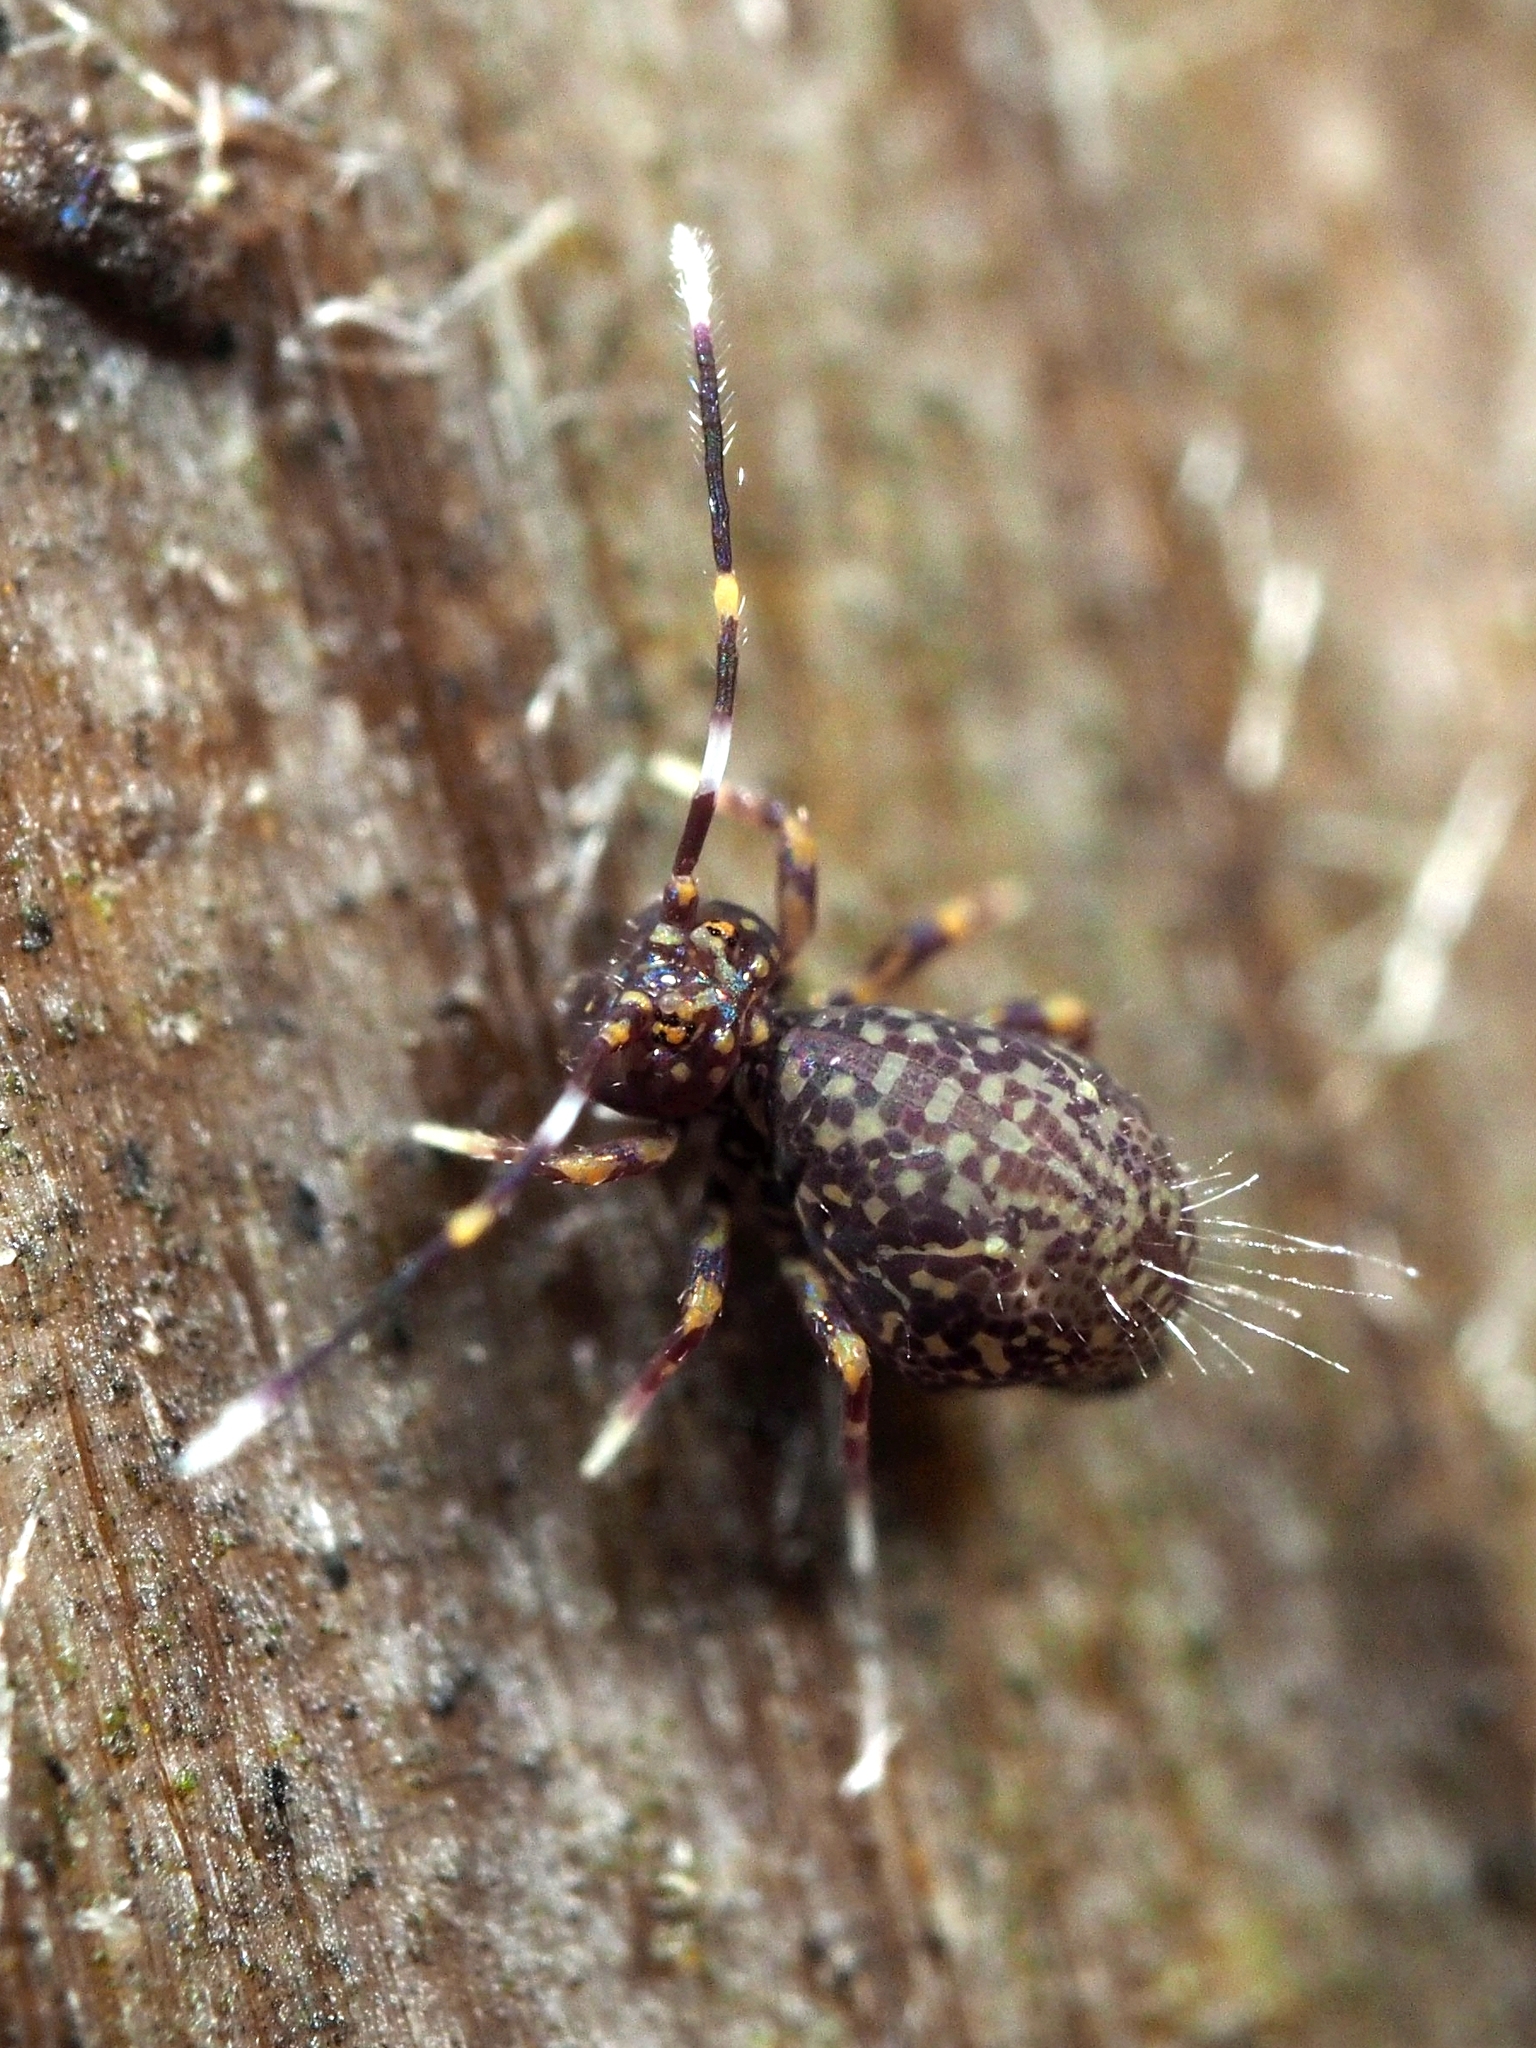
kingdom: Animalia
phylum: Arthropoda
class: Collembola
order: Symphypleona
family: Dicyrtomidae
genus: Ptenothrix
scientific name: Ptenothrix alveola
